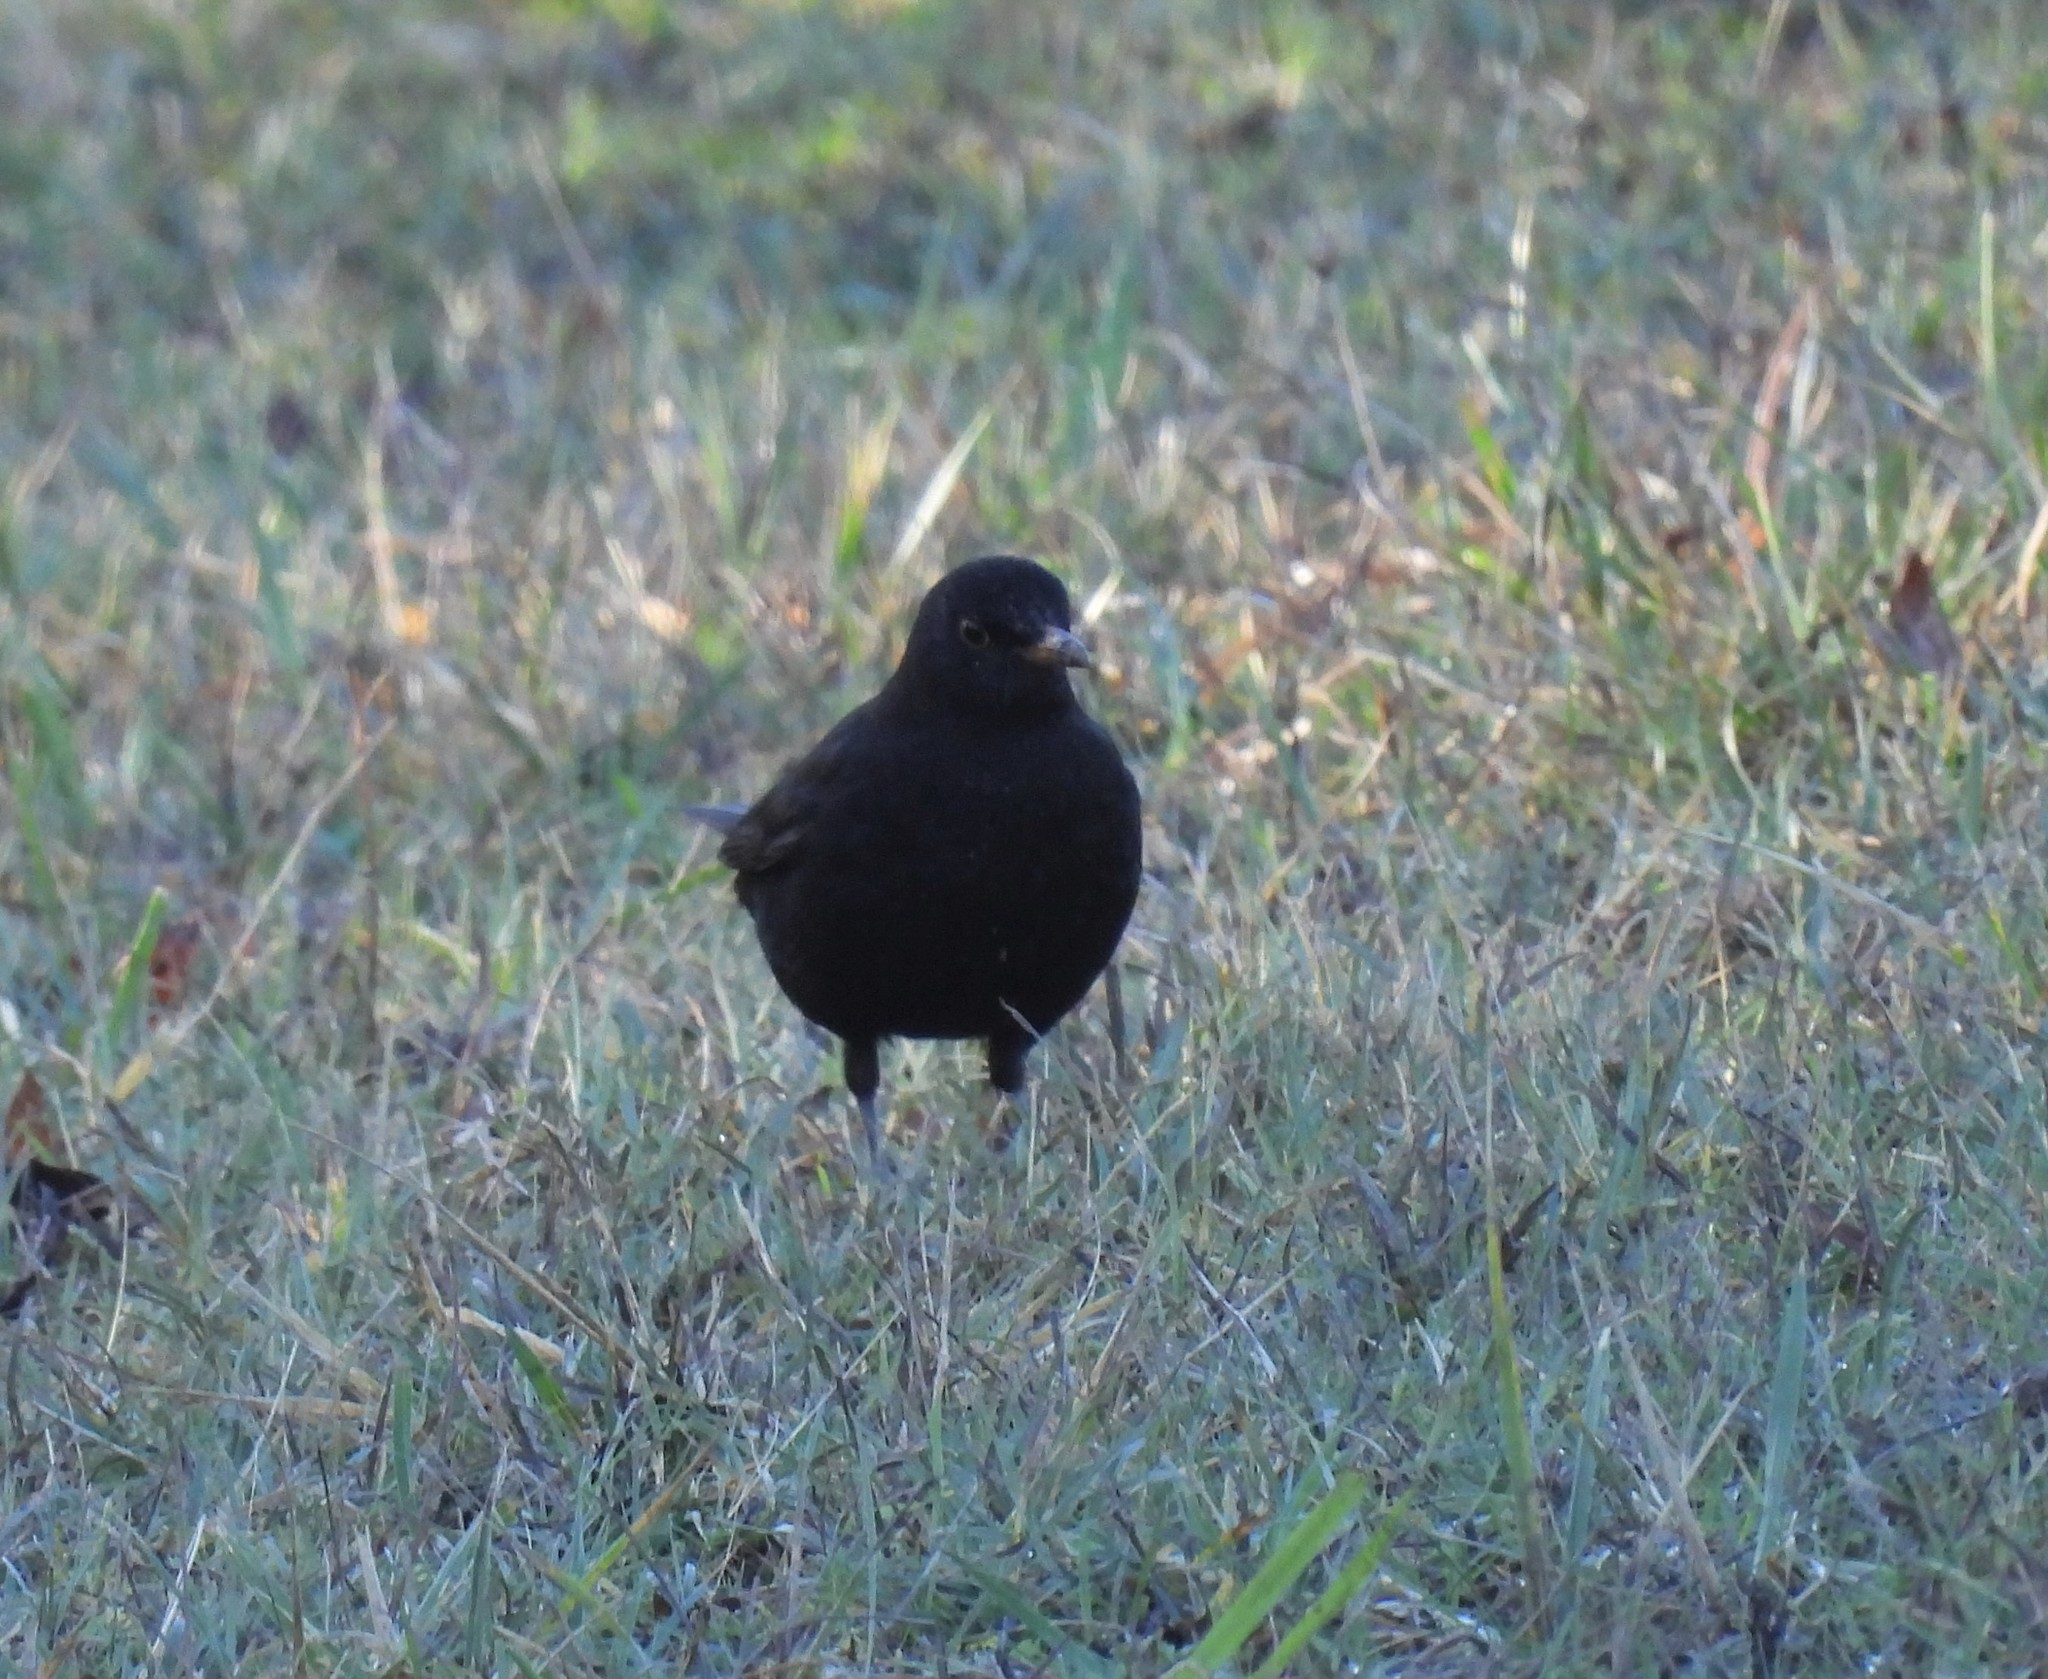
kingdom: Animalia
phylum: Chordata
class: Aves
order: Passeriformes
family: Turdidae
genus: Turdus
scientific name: Turdus merula
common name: Common blackbird
